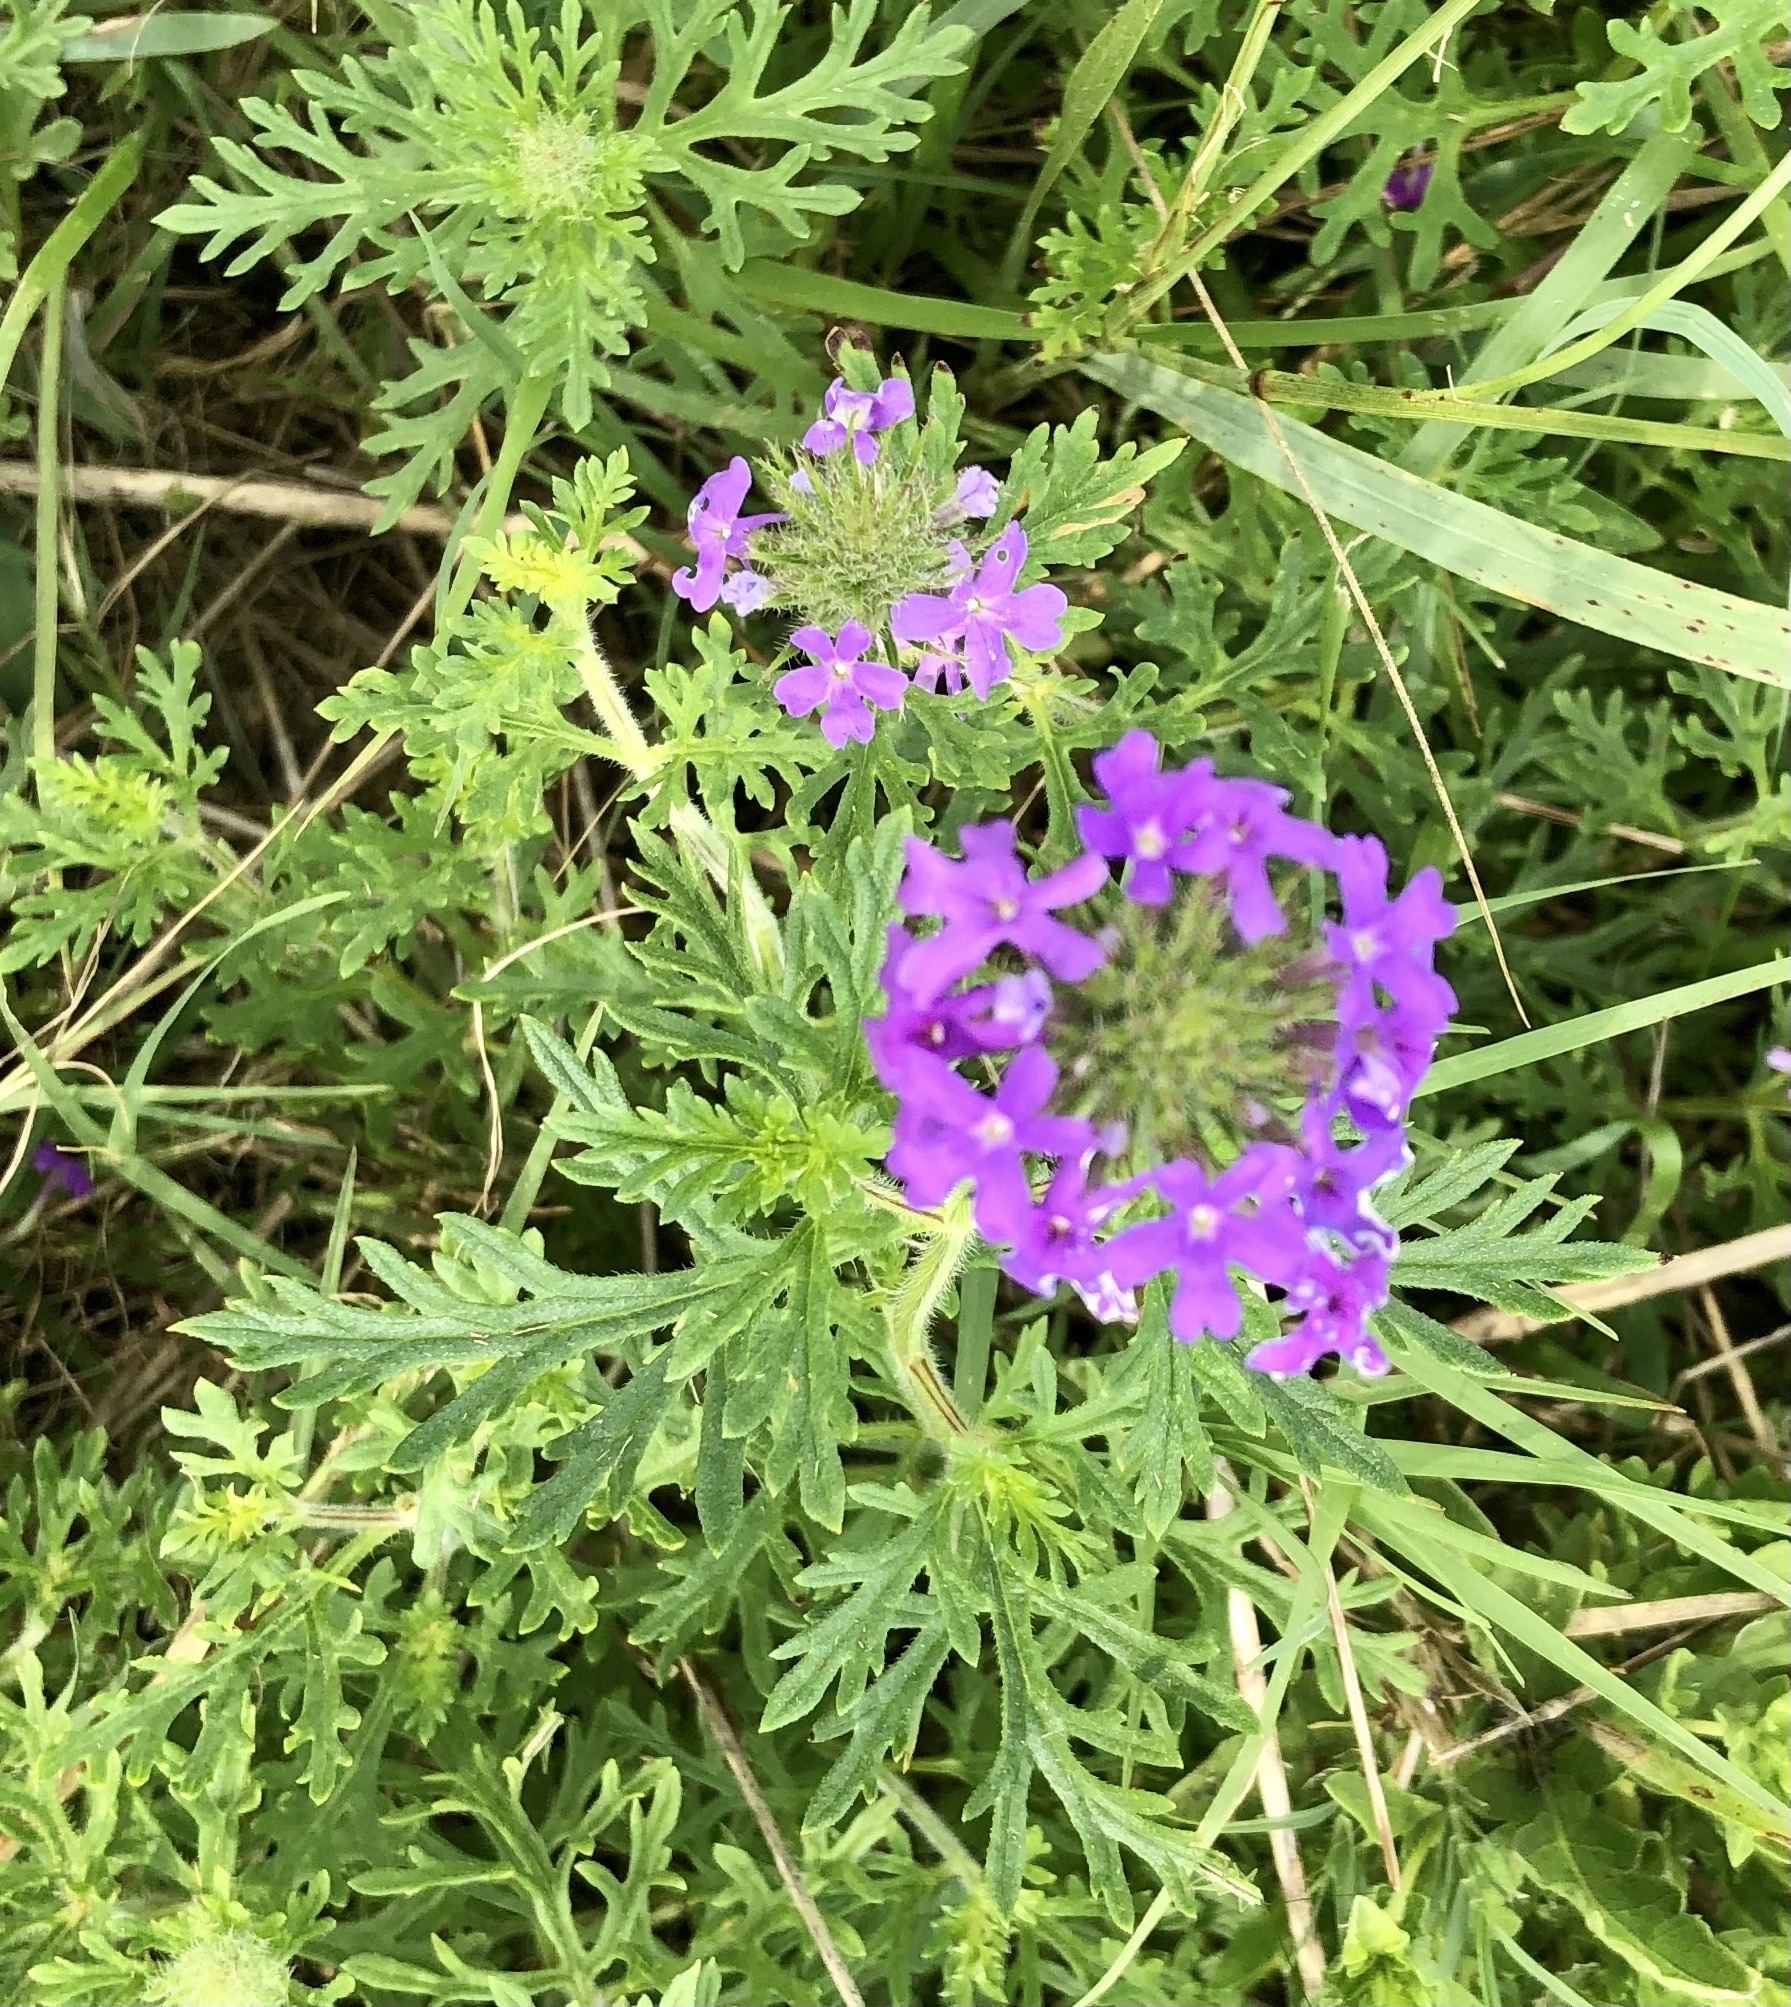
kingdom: Plantae
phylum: Tracheophyta
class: Magnoliopsida
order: Lamiales
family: Verbenaceae
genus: Verbena
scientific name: Verbena bipinnatifida
